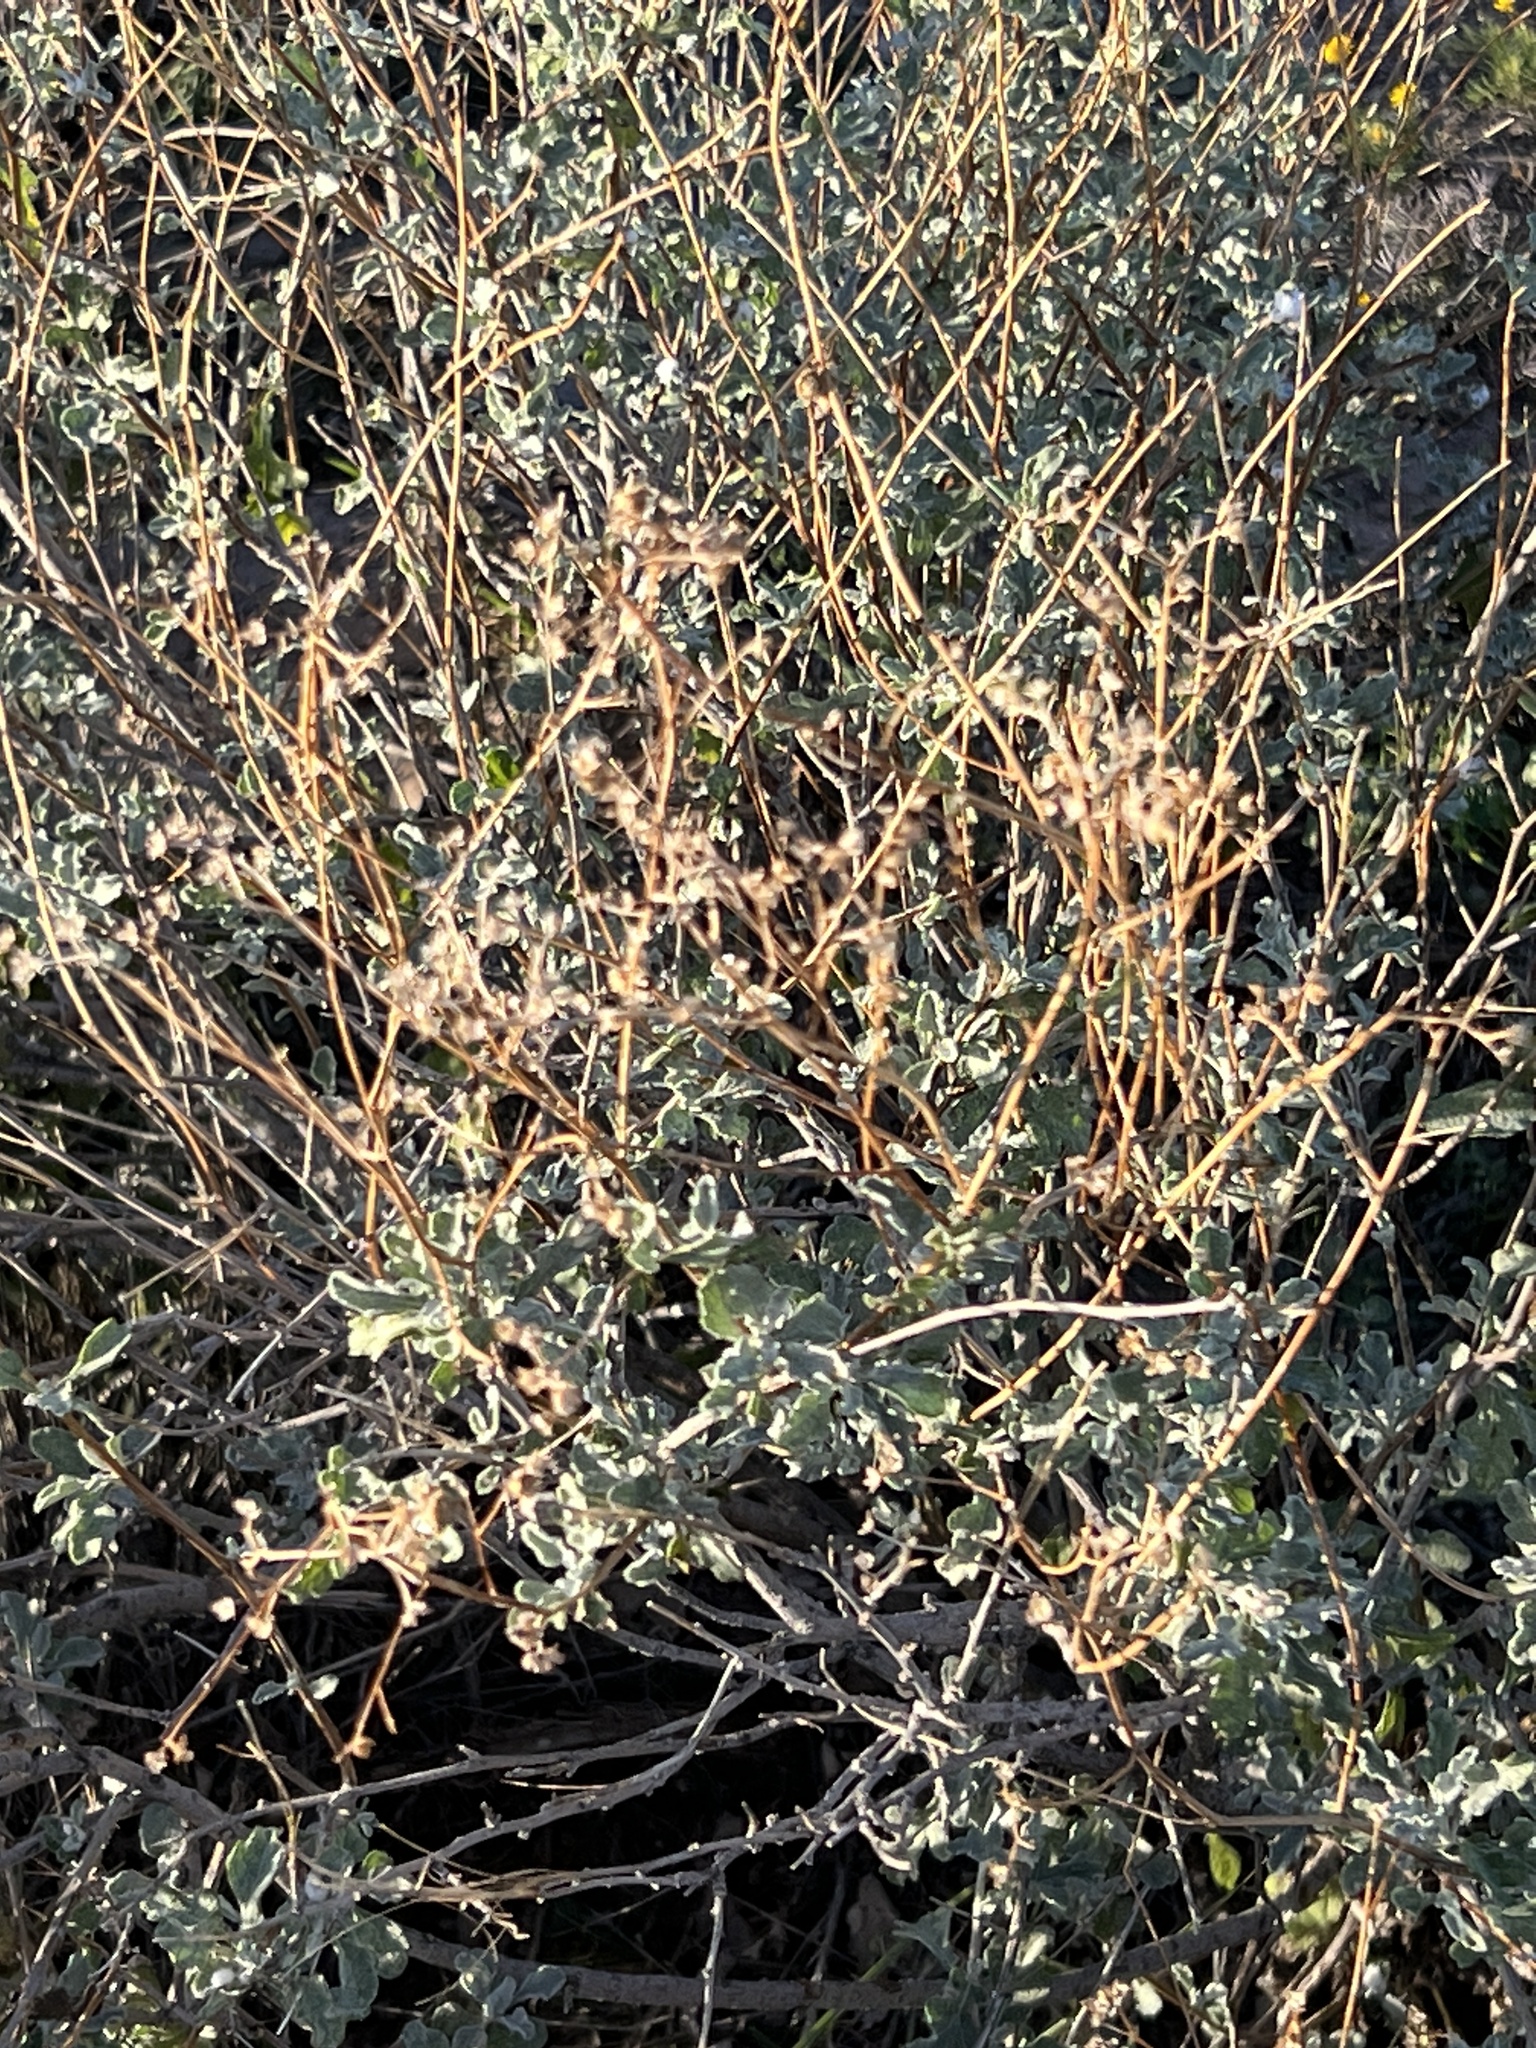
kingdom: Plantae
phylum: Tracheophyta
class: Magnoliopsida
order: Asterales
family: Asteraceae
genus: Parthenium
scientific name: Parthenium incanum
